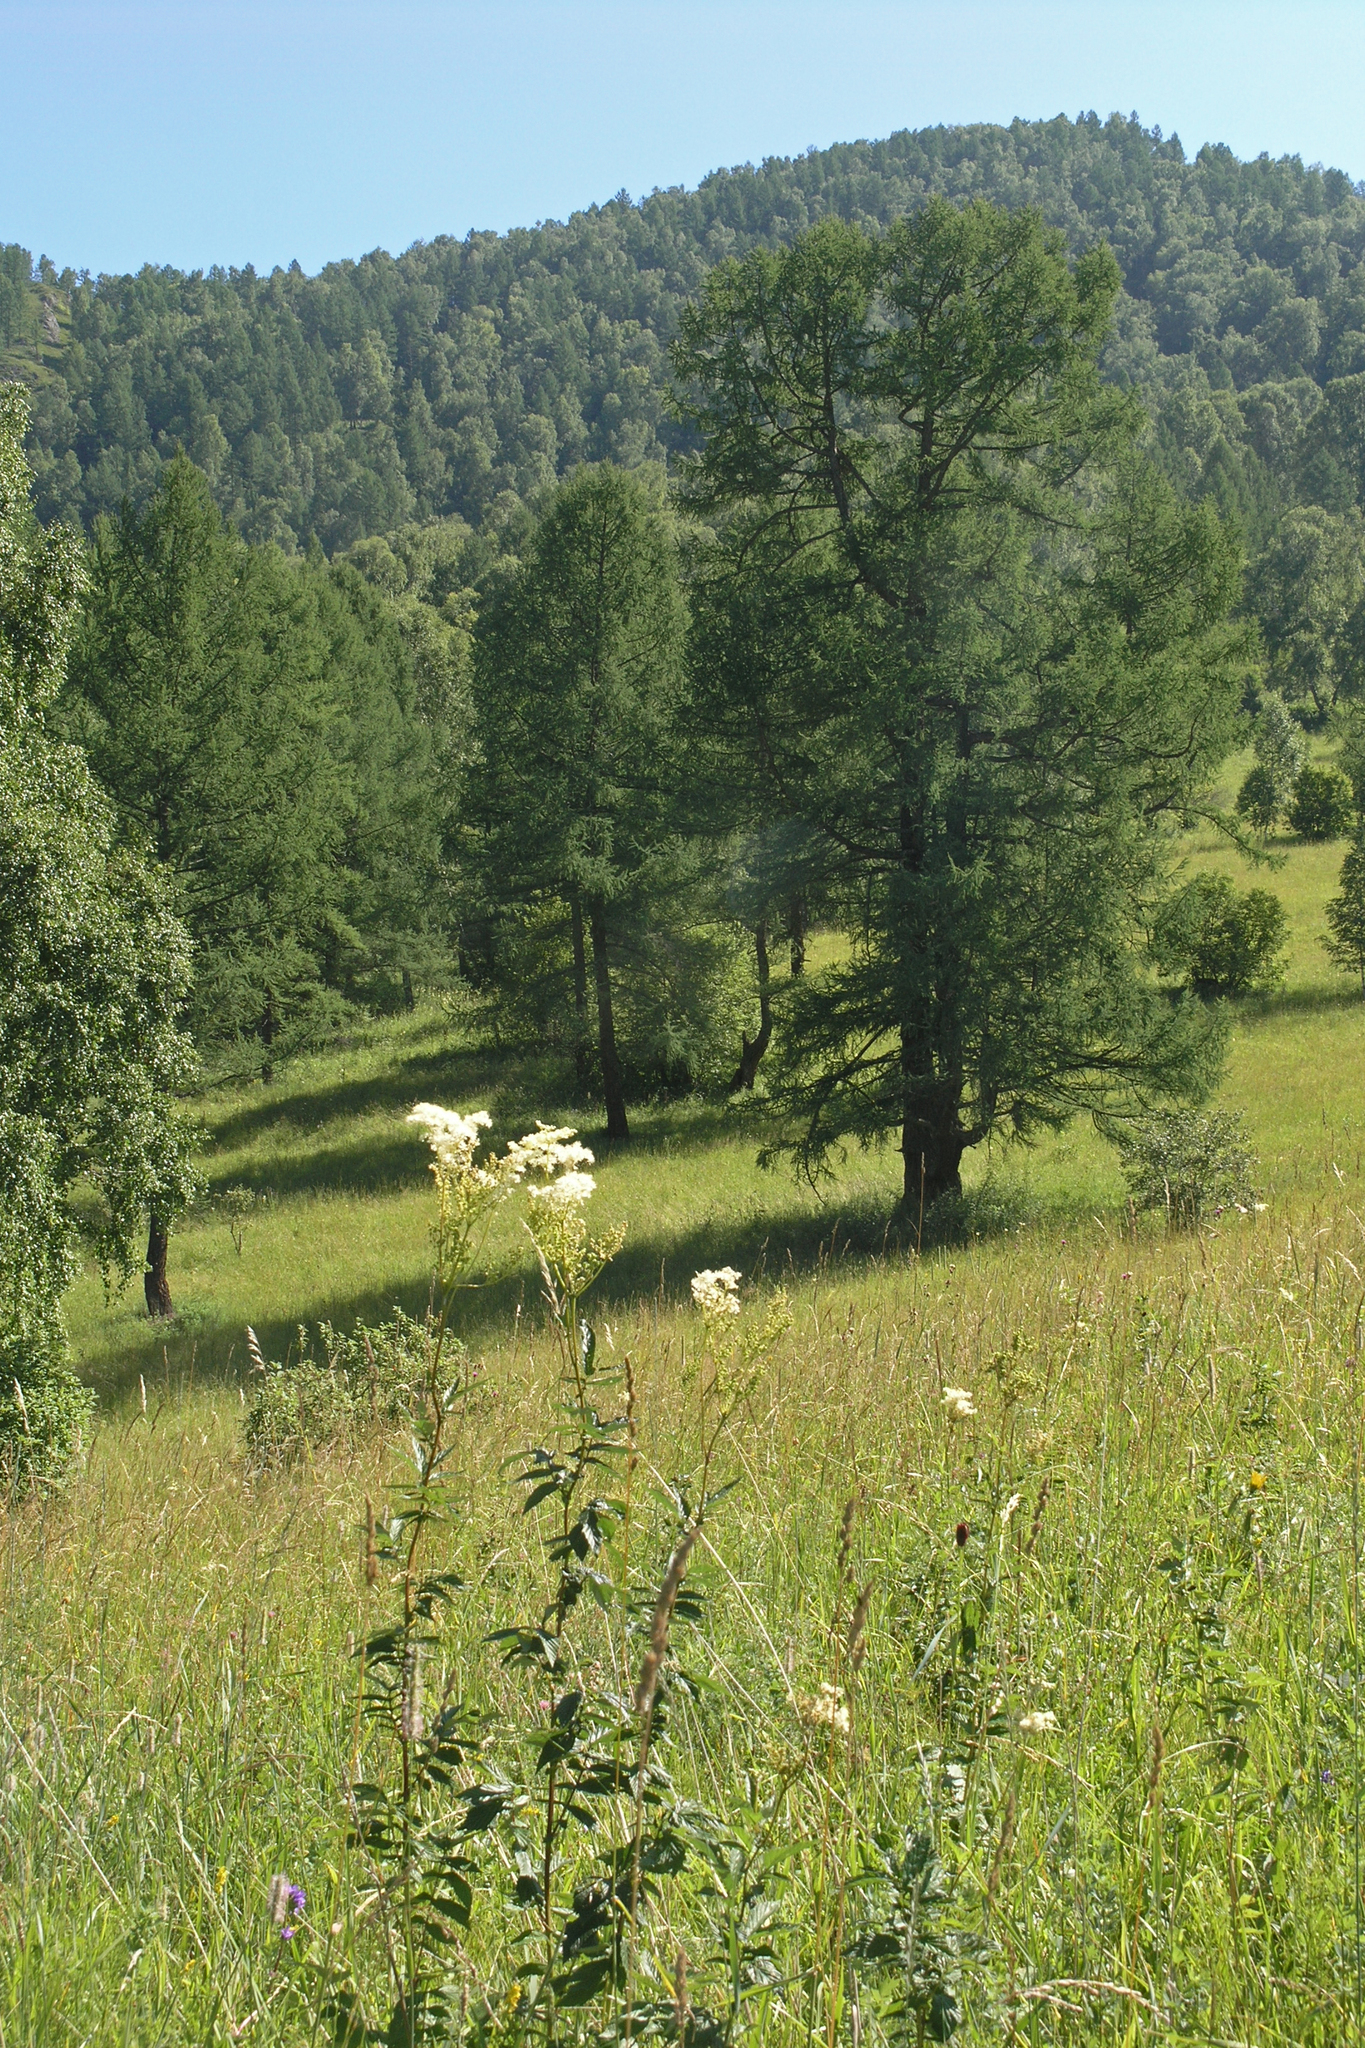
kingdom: Plantae
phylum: Tracheophyta
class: Magnoliopsida
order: Rosales
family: Rosaceae
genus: Filipendula
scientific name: Filipendula ulmaria
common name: Meadowsweet
